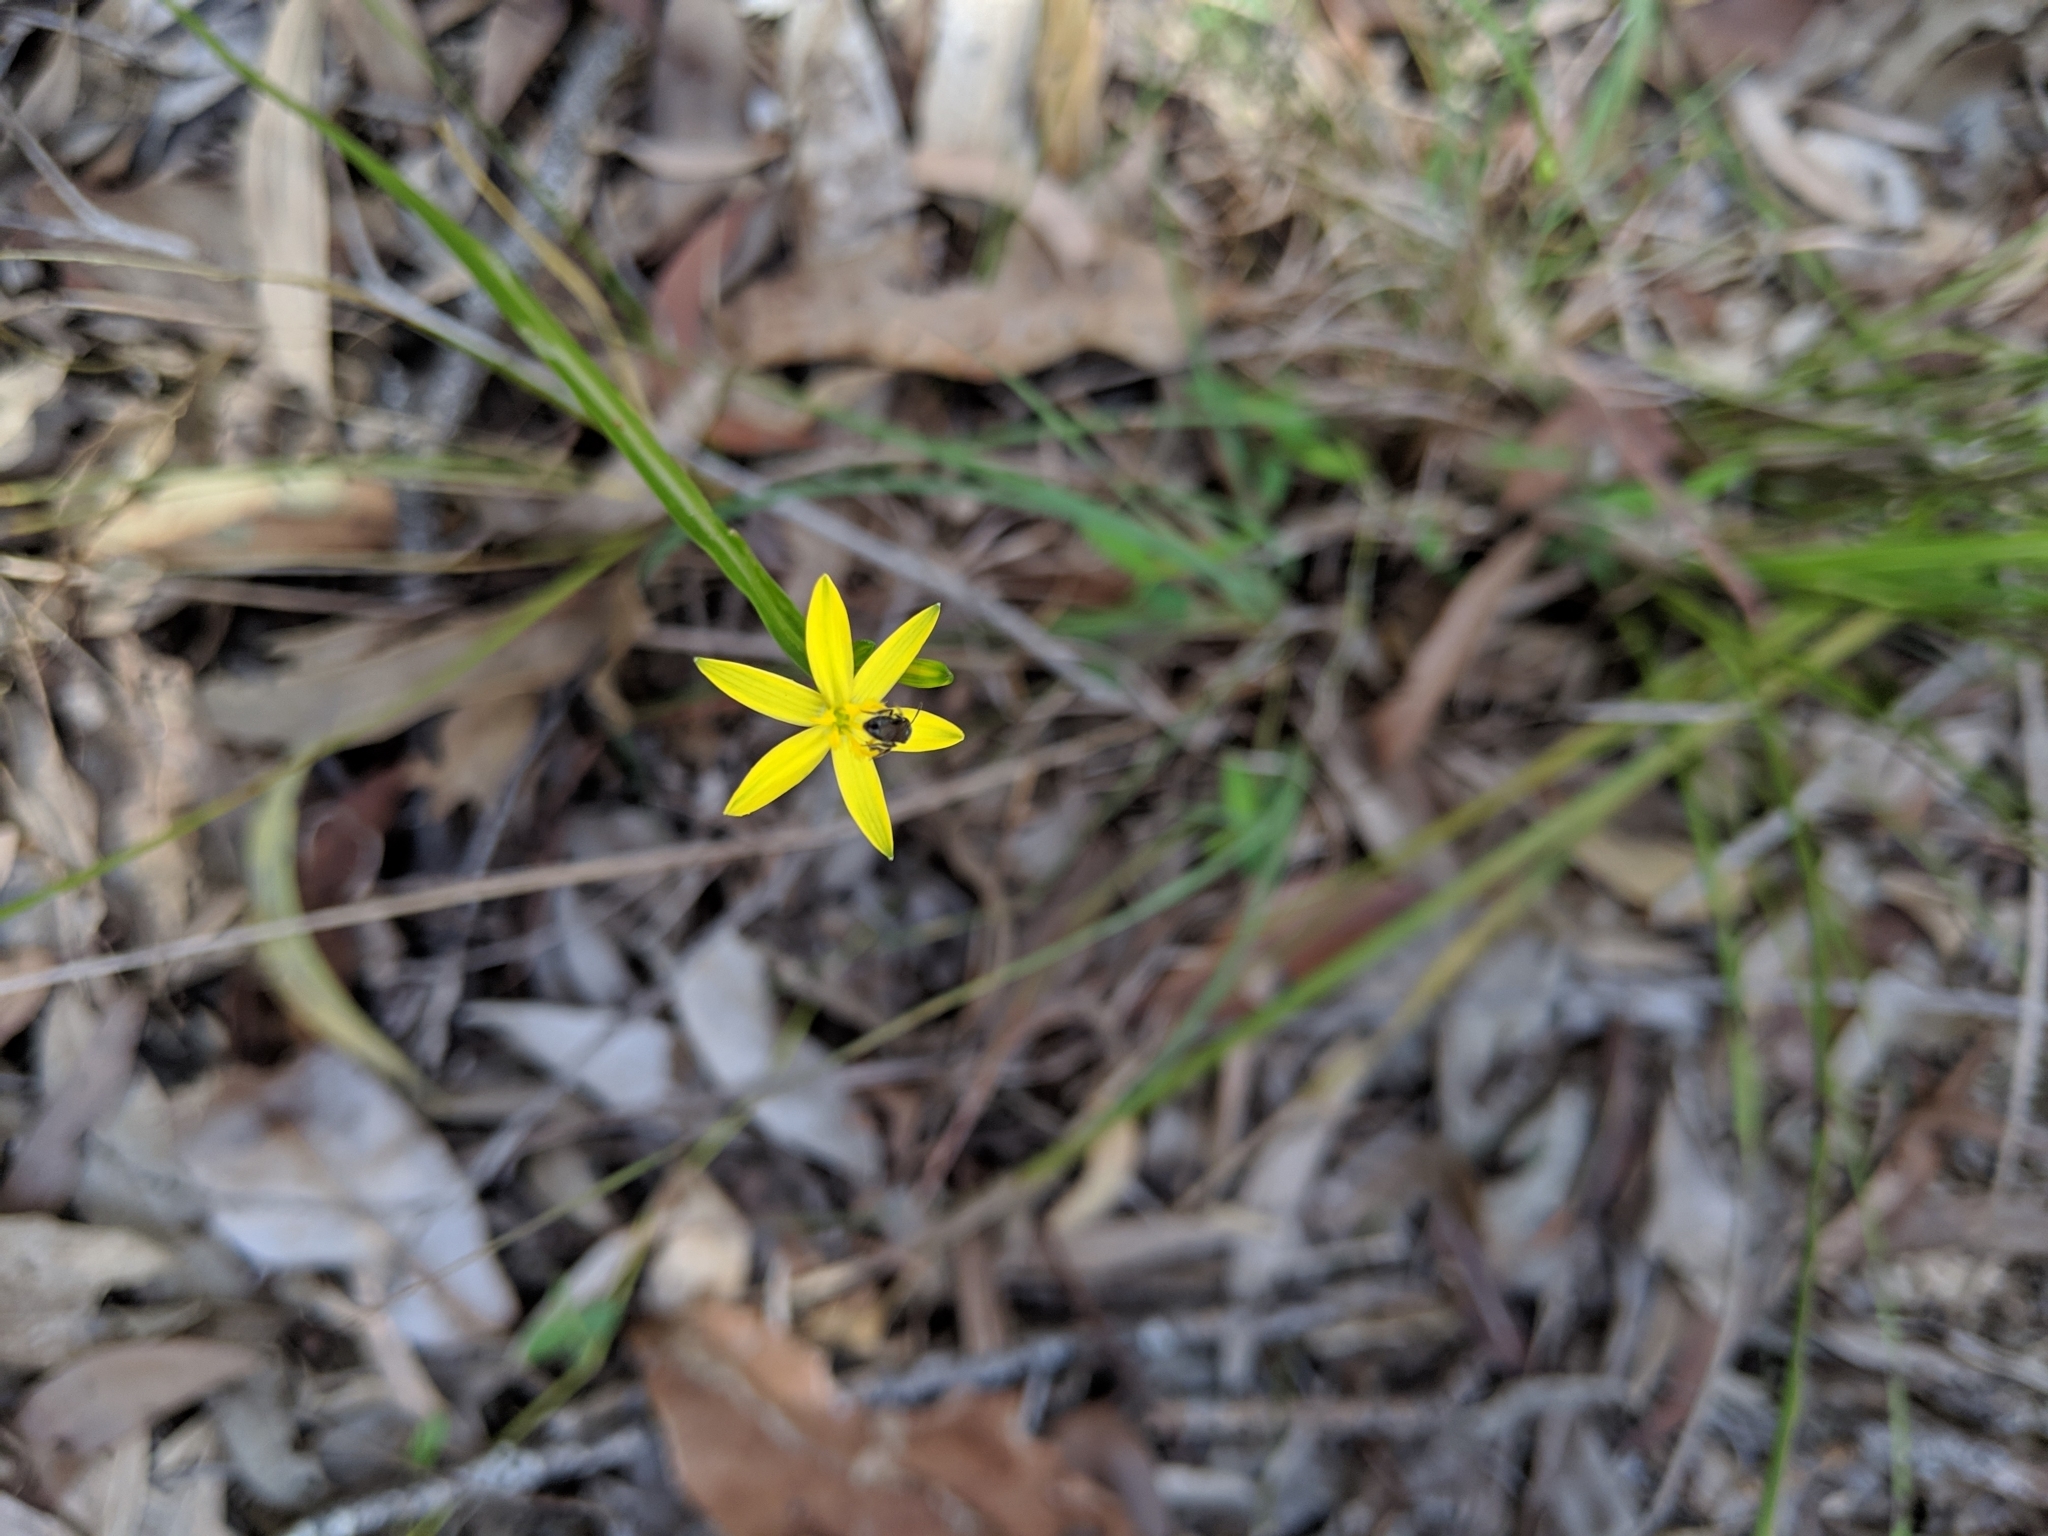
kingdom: Plantae
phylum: Tracheophyta
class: Liliopsida
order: Asparagales
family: Asphodelaceae
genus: Tricoryne
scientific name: Tricoryne anceps
